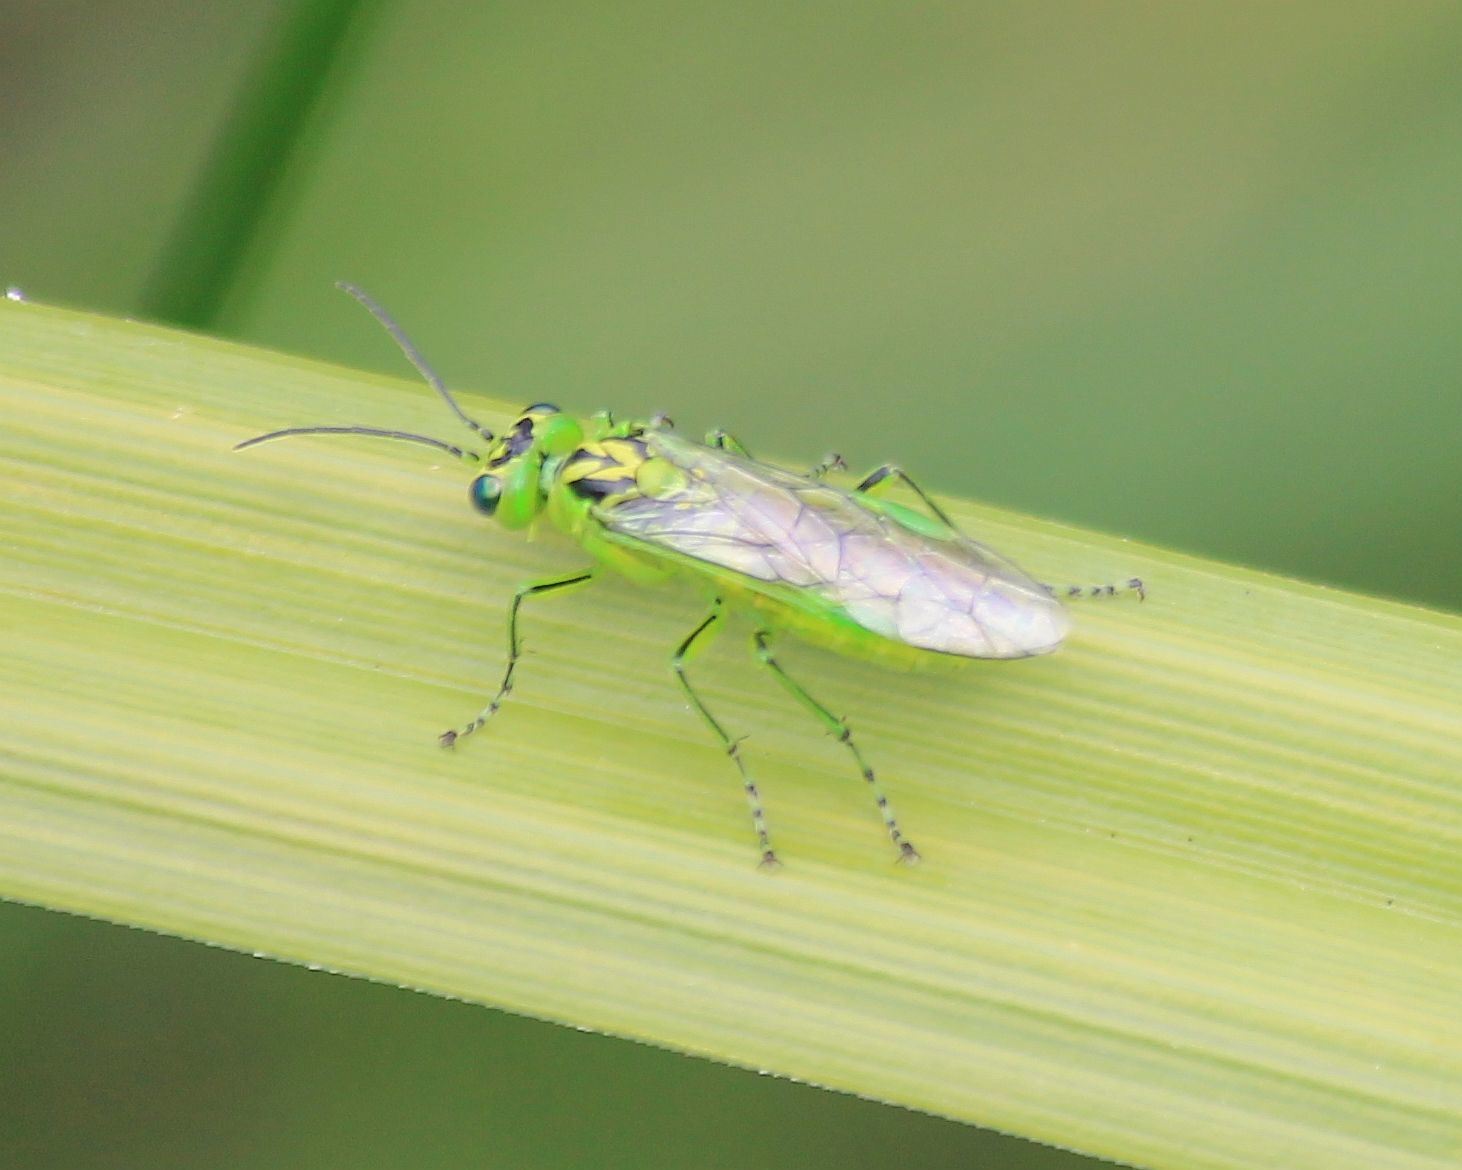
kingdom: Animalia
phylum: Arthropoda
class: Insecta
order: Hymenoptera
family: Tenthredinidae
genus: Rhogogaster
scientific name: Rhogogaster chlorosoma
